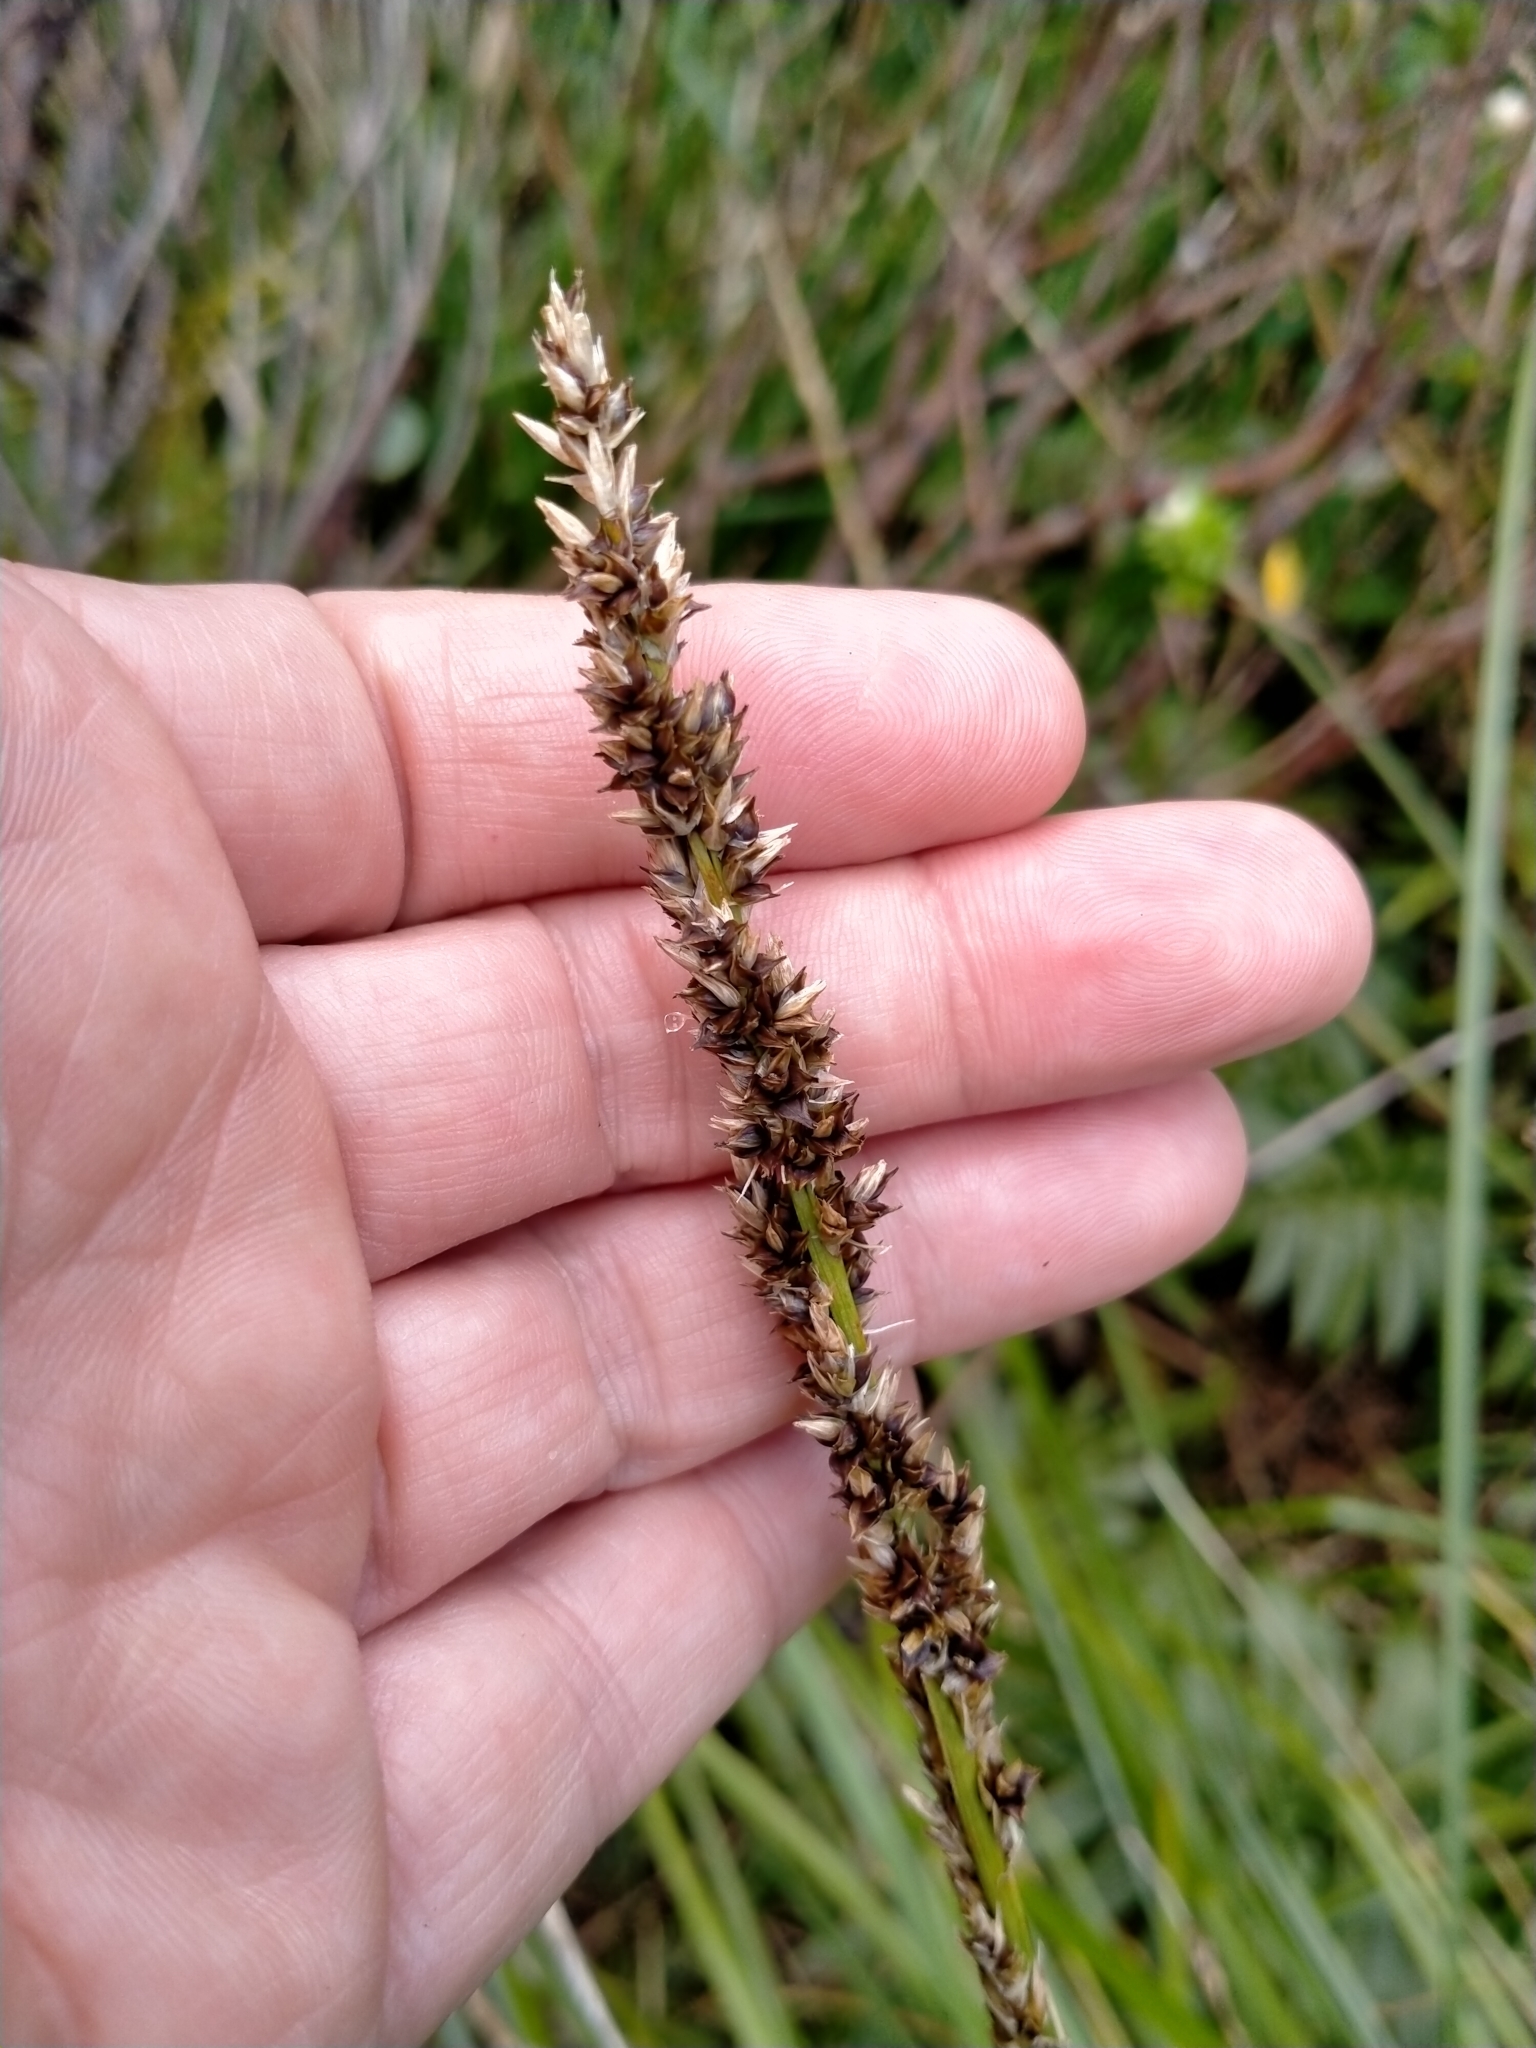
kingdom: Plantae
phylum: Tracheophyta
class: Liliopsida
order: Poales
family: Cyperaceae
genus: Carex
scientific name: Carex appressa
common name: Tussock sedge
